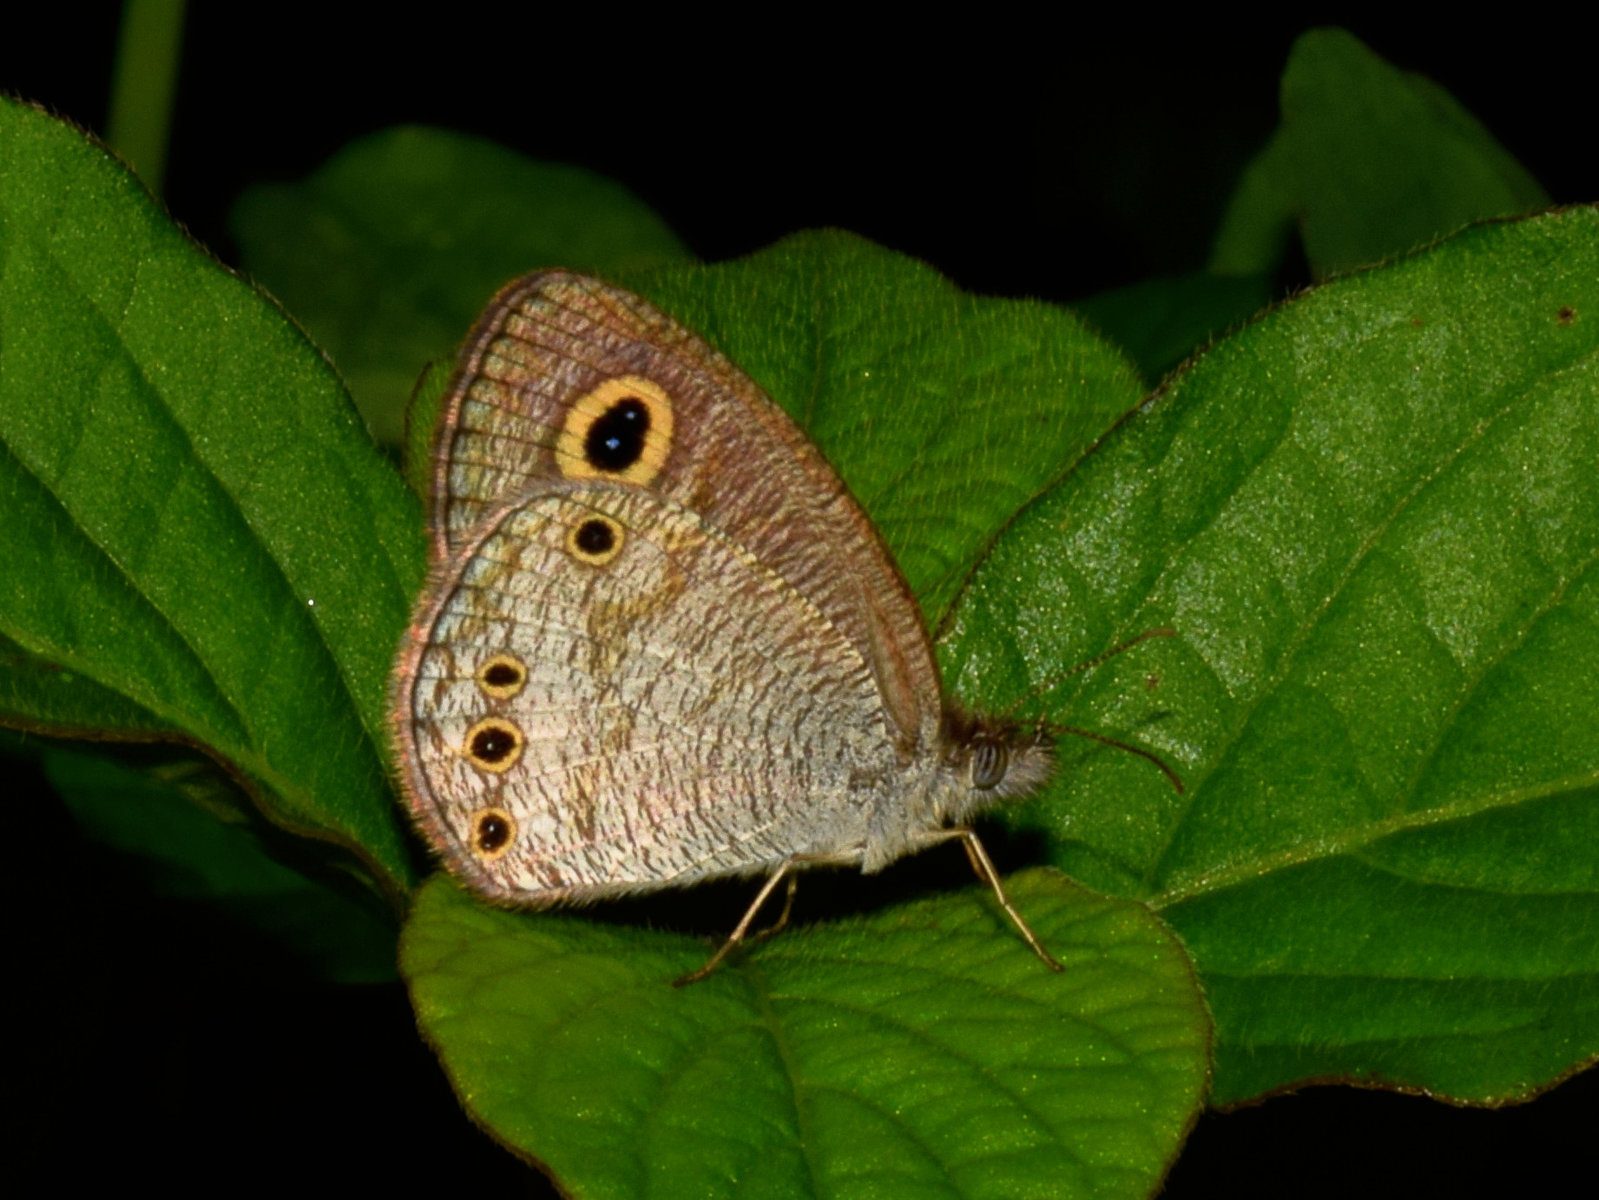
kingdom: Animalia
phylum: Arthropoda
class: Insecta
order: Lepidoptera
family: Nymphalidae
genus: Ypthima
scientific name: Ypthima huebneri
